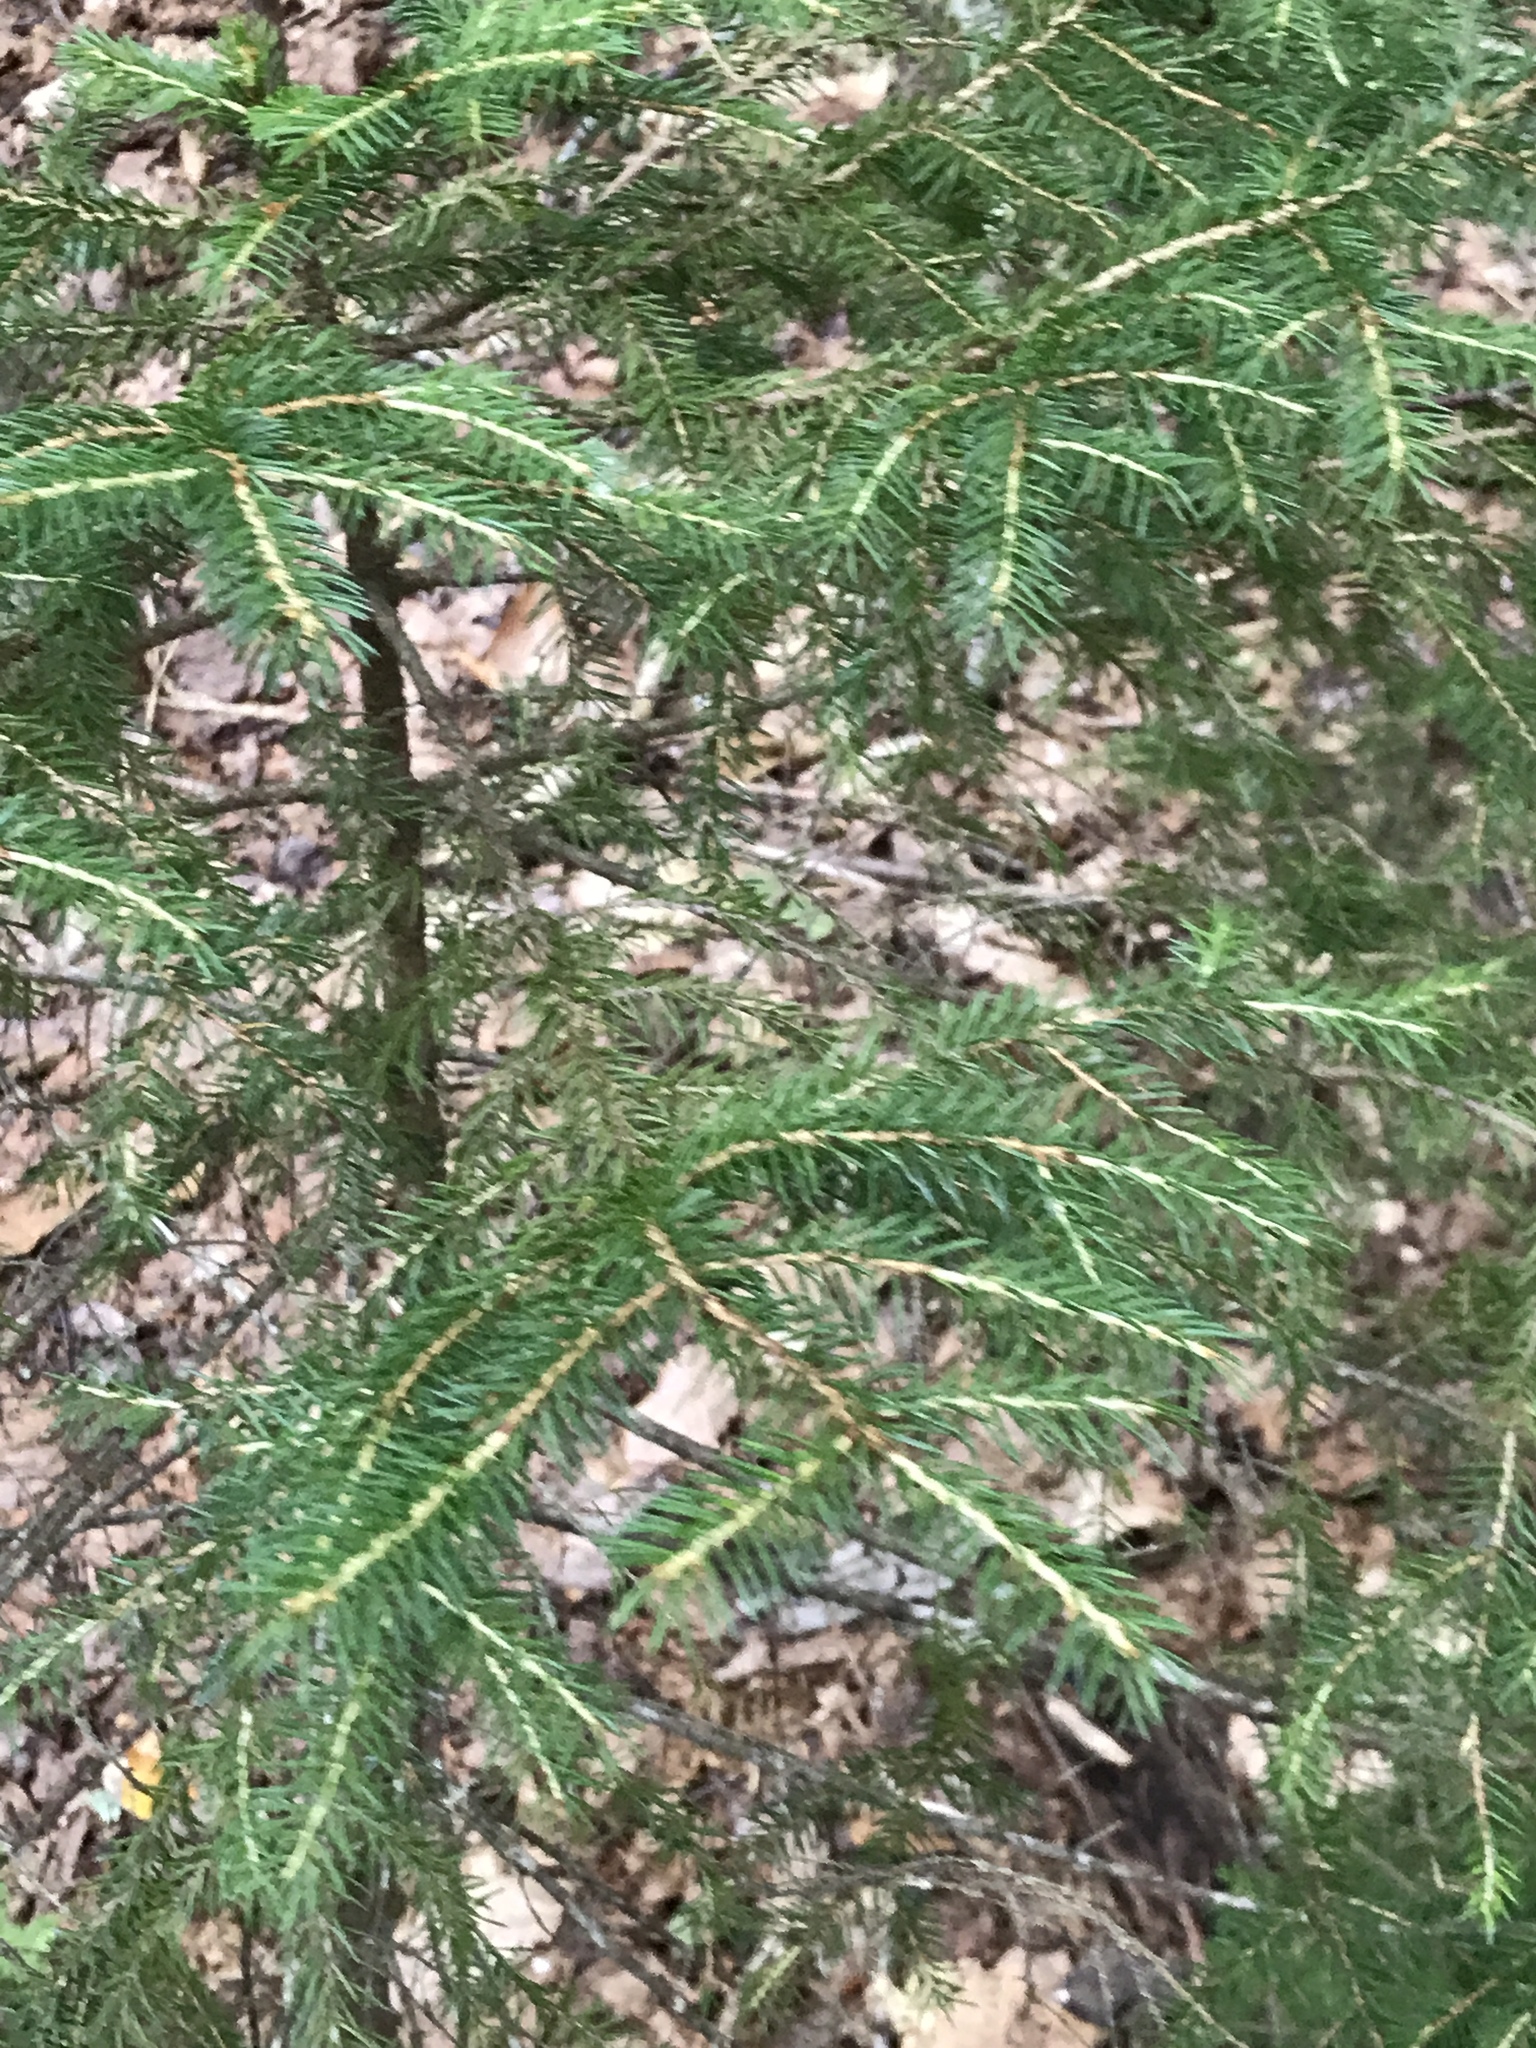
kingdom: Plantae
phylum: Tracheophyta
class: Pinopsida
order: Pinales
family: Pinaceae
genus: Picea
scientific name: Picea rubens
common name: Red spruce
